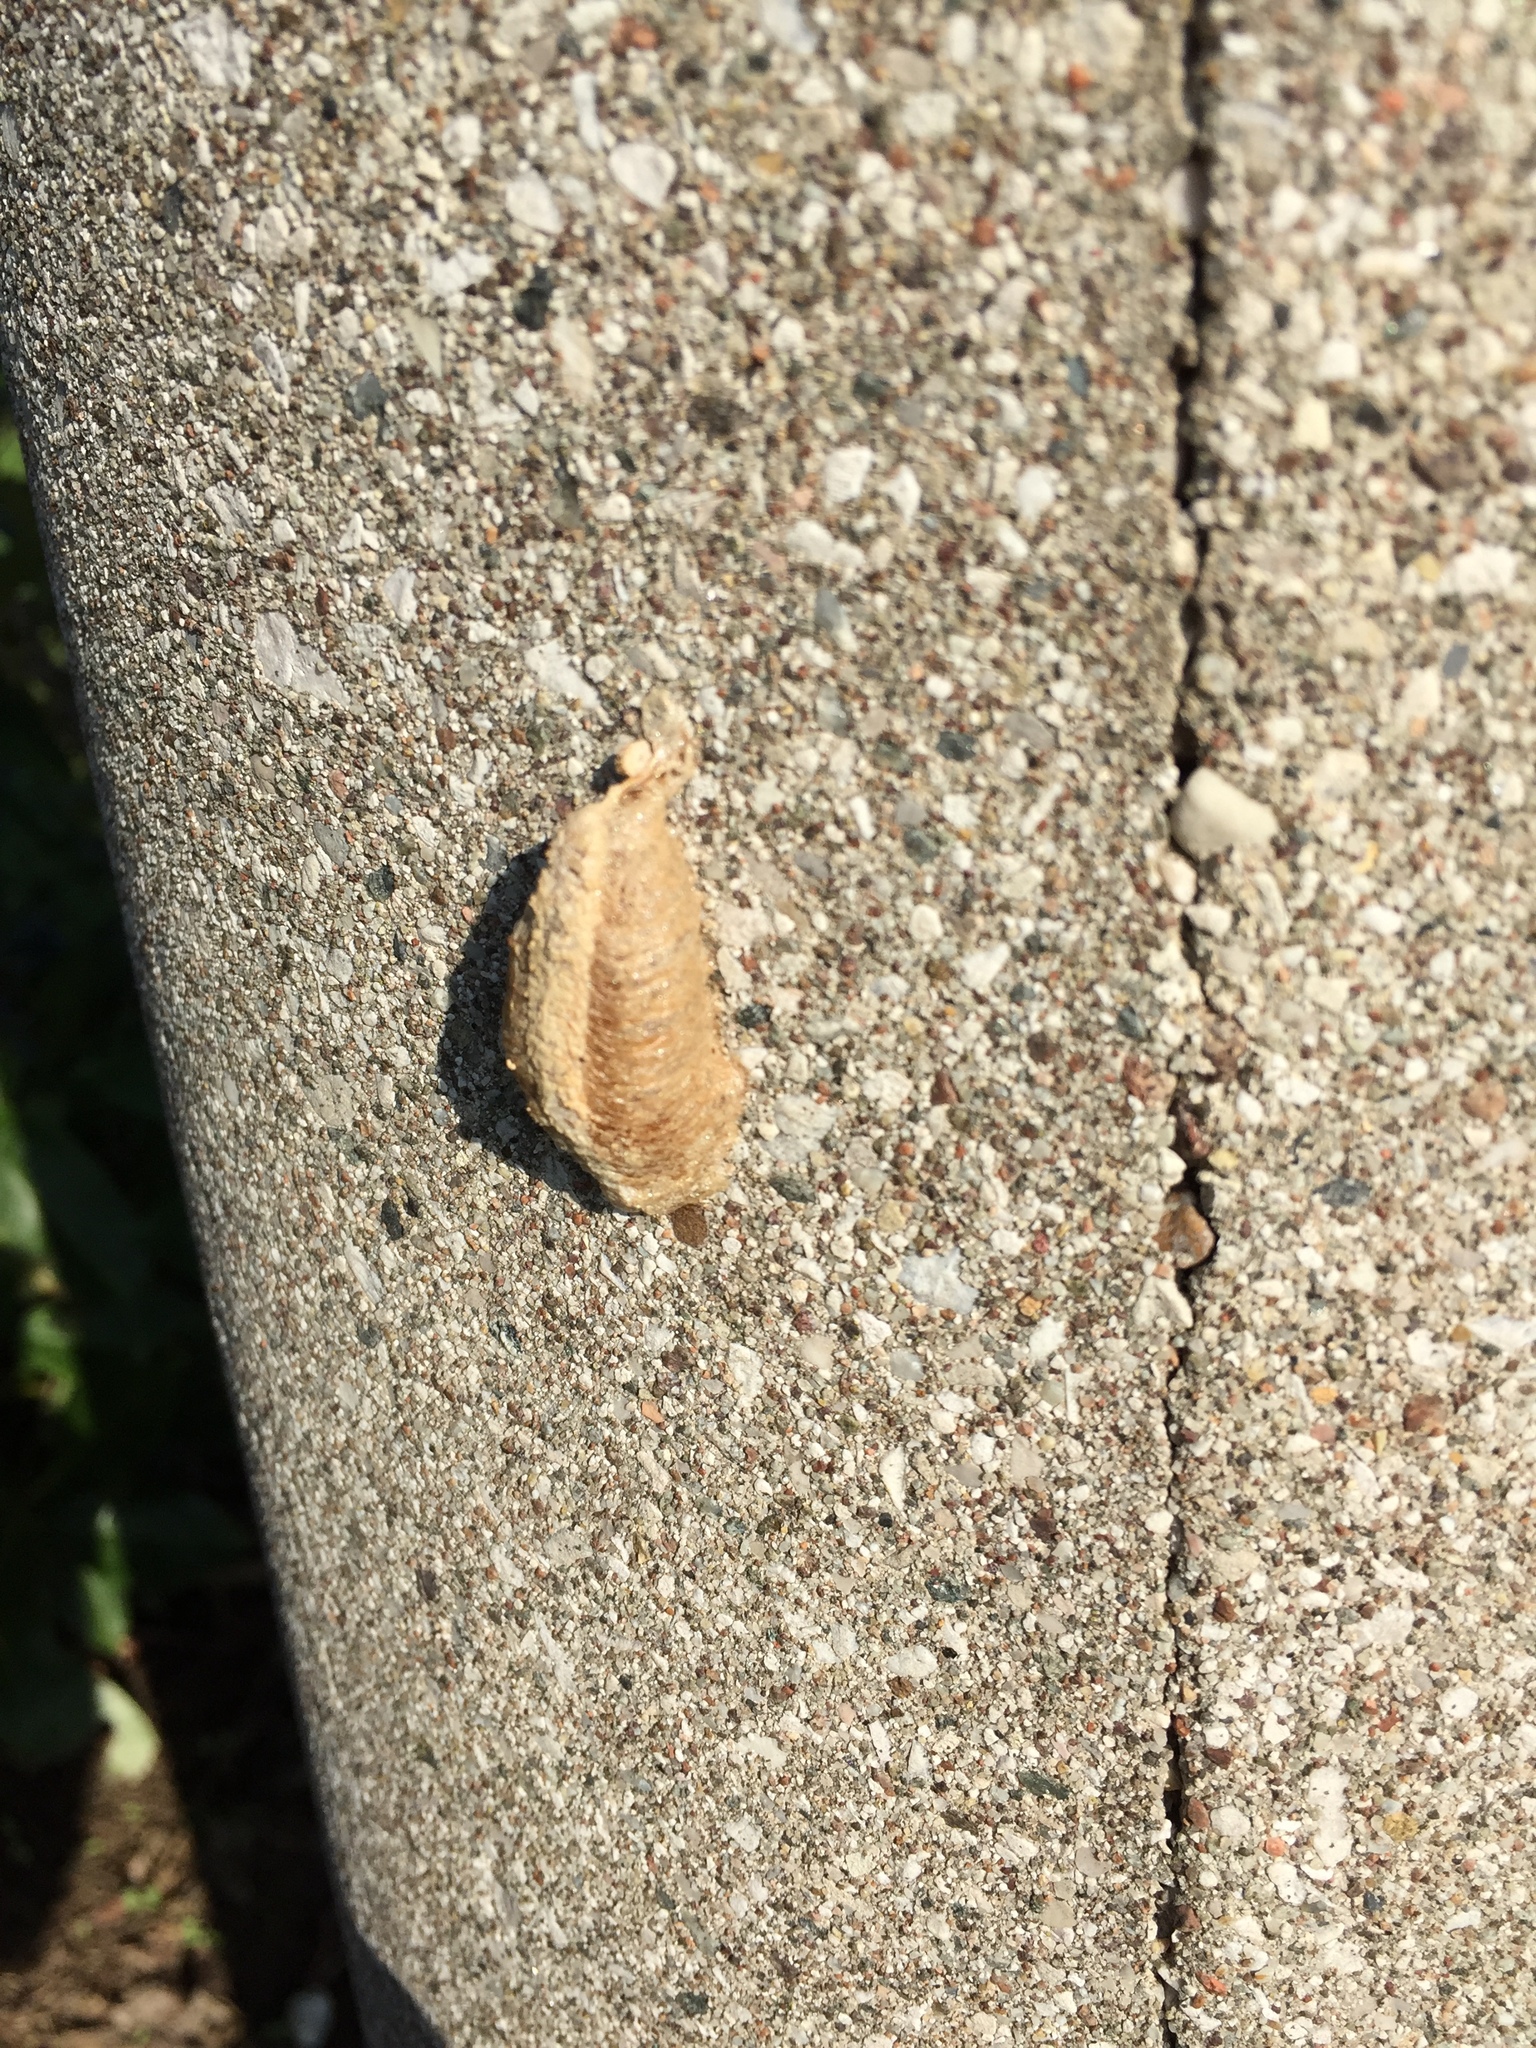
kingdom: Animalia
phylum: Arthropoda
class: Insecta
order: Mantodea
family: Mantidae
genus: Mantis
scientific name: Mantis religiosa
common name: Praying mantis
